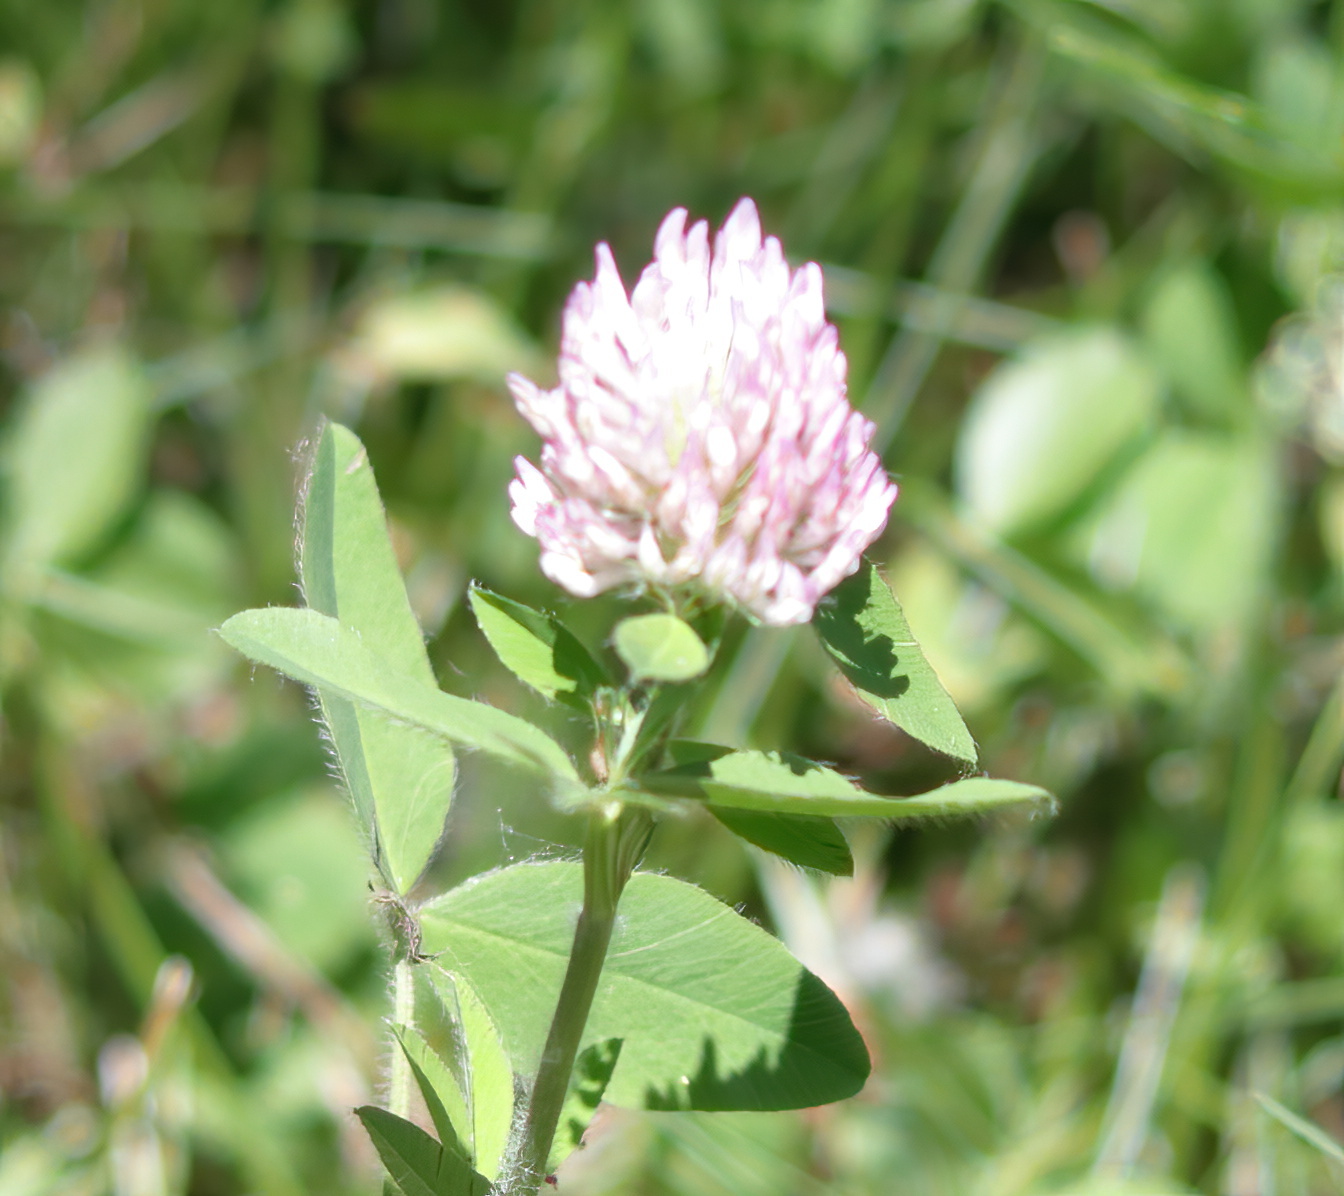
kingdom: Plantae
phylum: Tracheophyta
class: Magnoliopsida
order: Fabales
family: Fabaceae
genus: Trifolium
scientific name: Trifolium pratense
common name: Red clover
